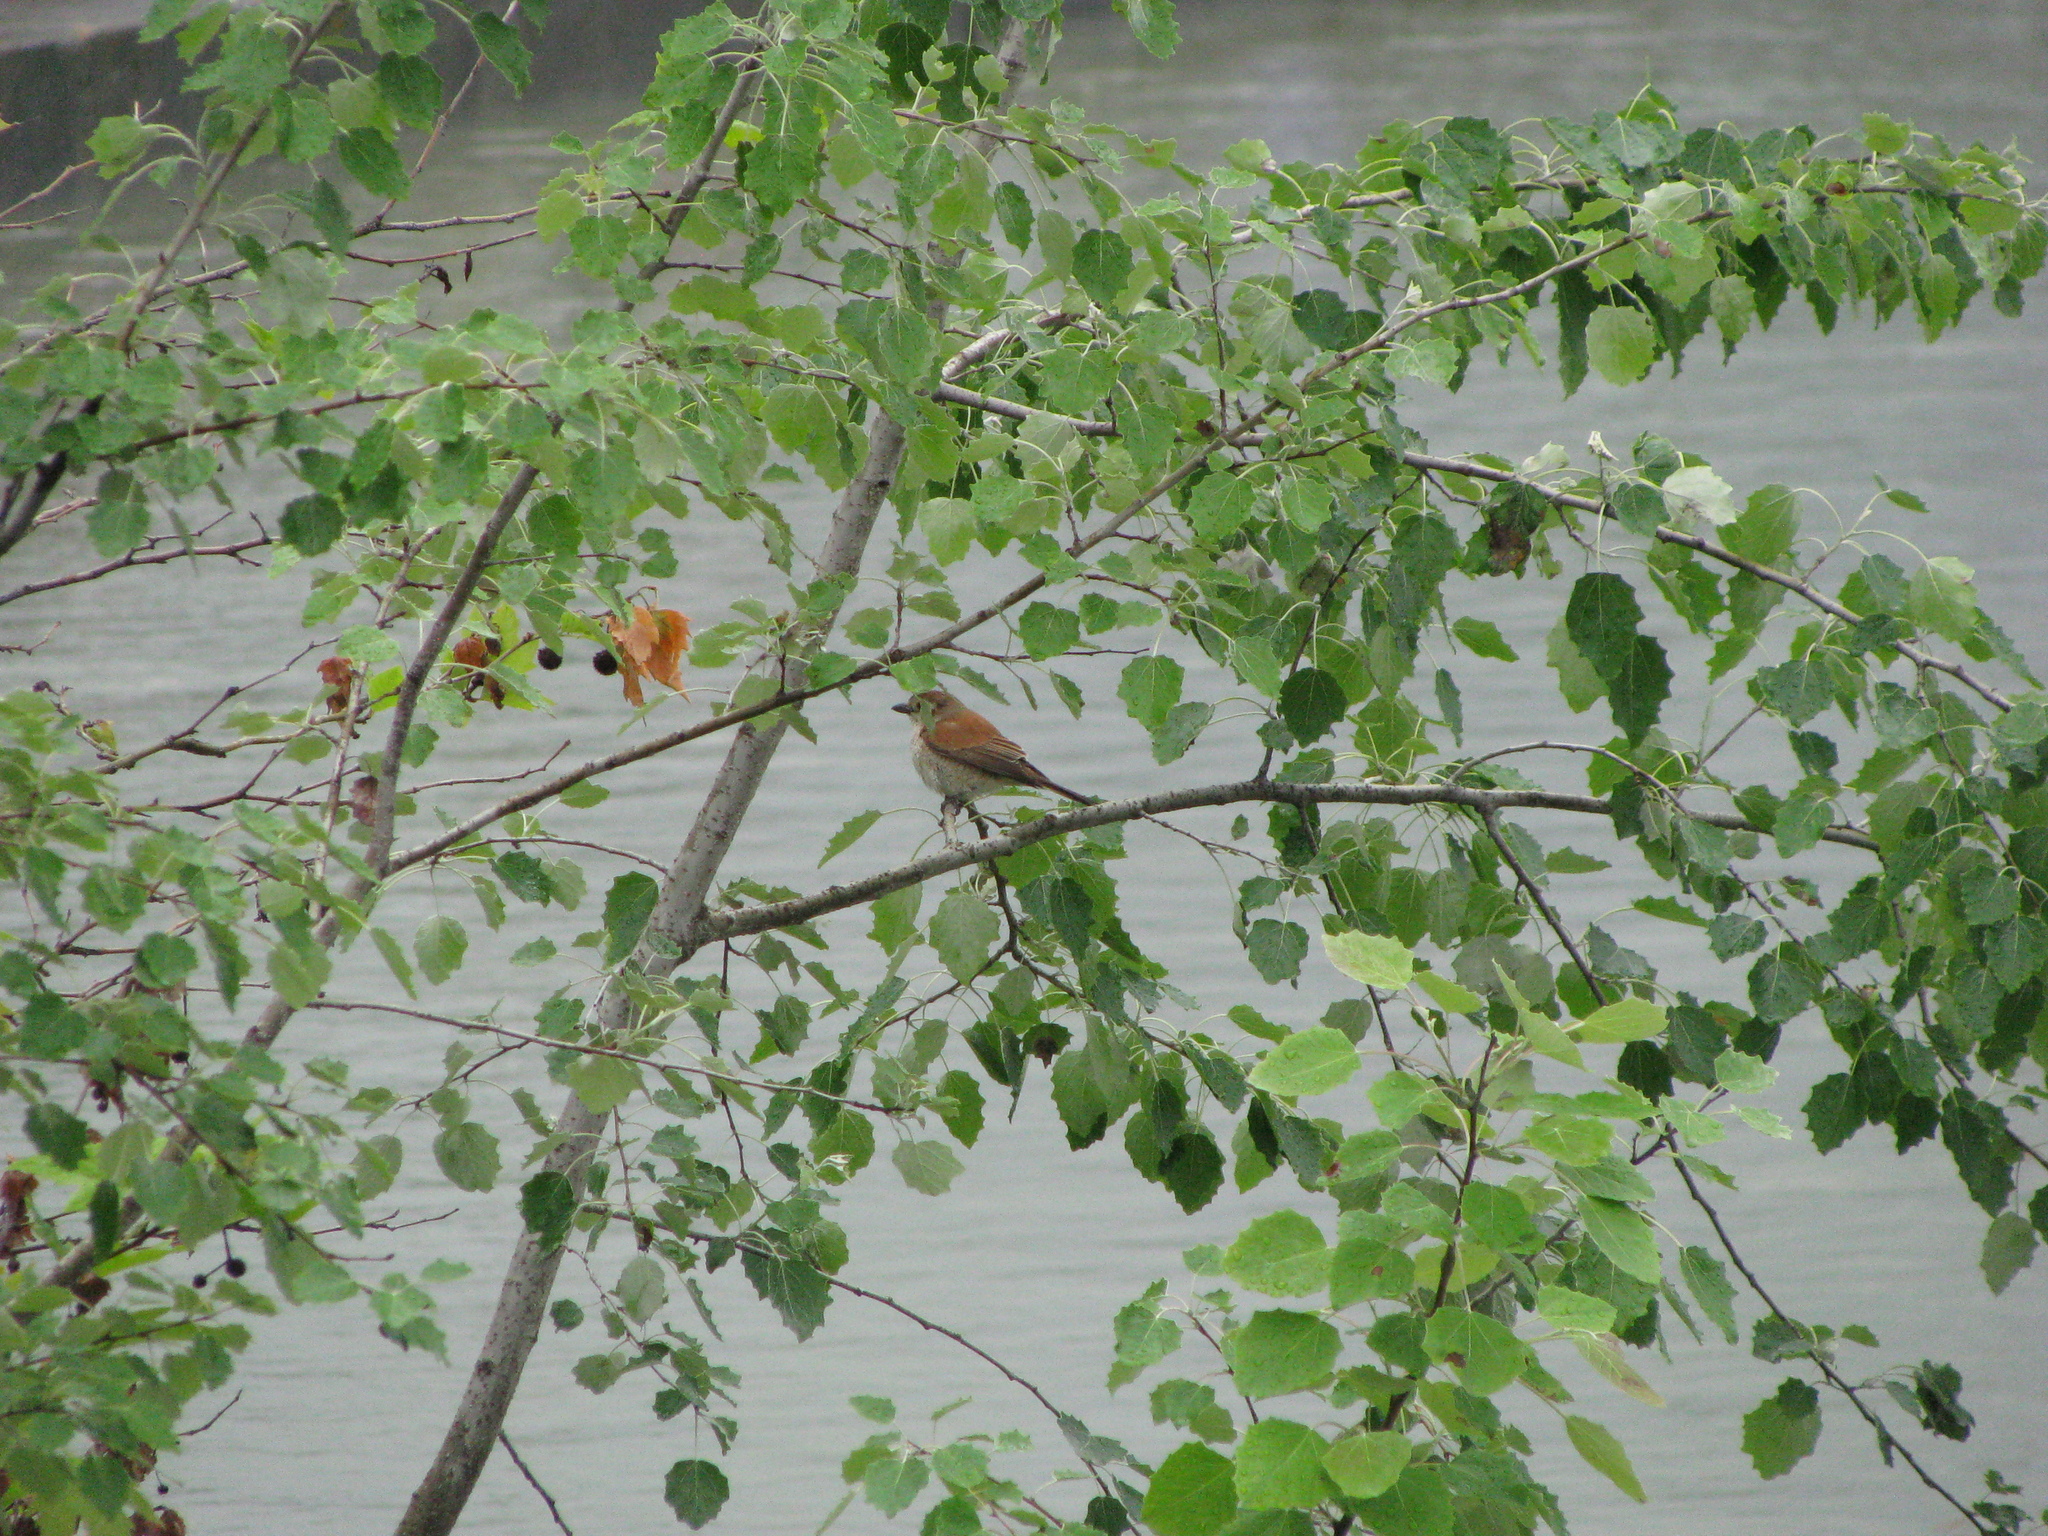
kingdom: Animalia
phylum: Chordata
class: Aves
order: Passeriformes
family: Laniidae
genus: Lanius
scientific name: Lanius collurio
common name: Red-backed shrike
